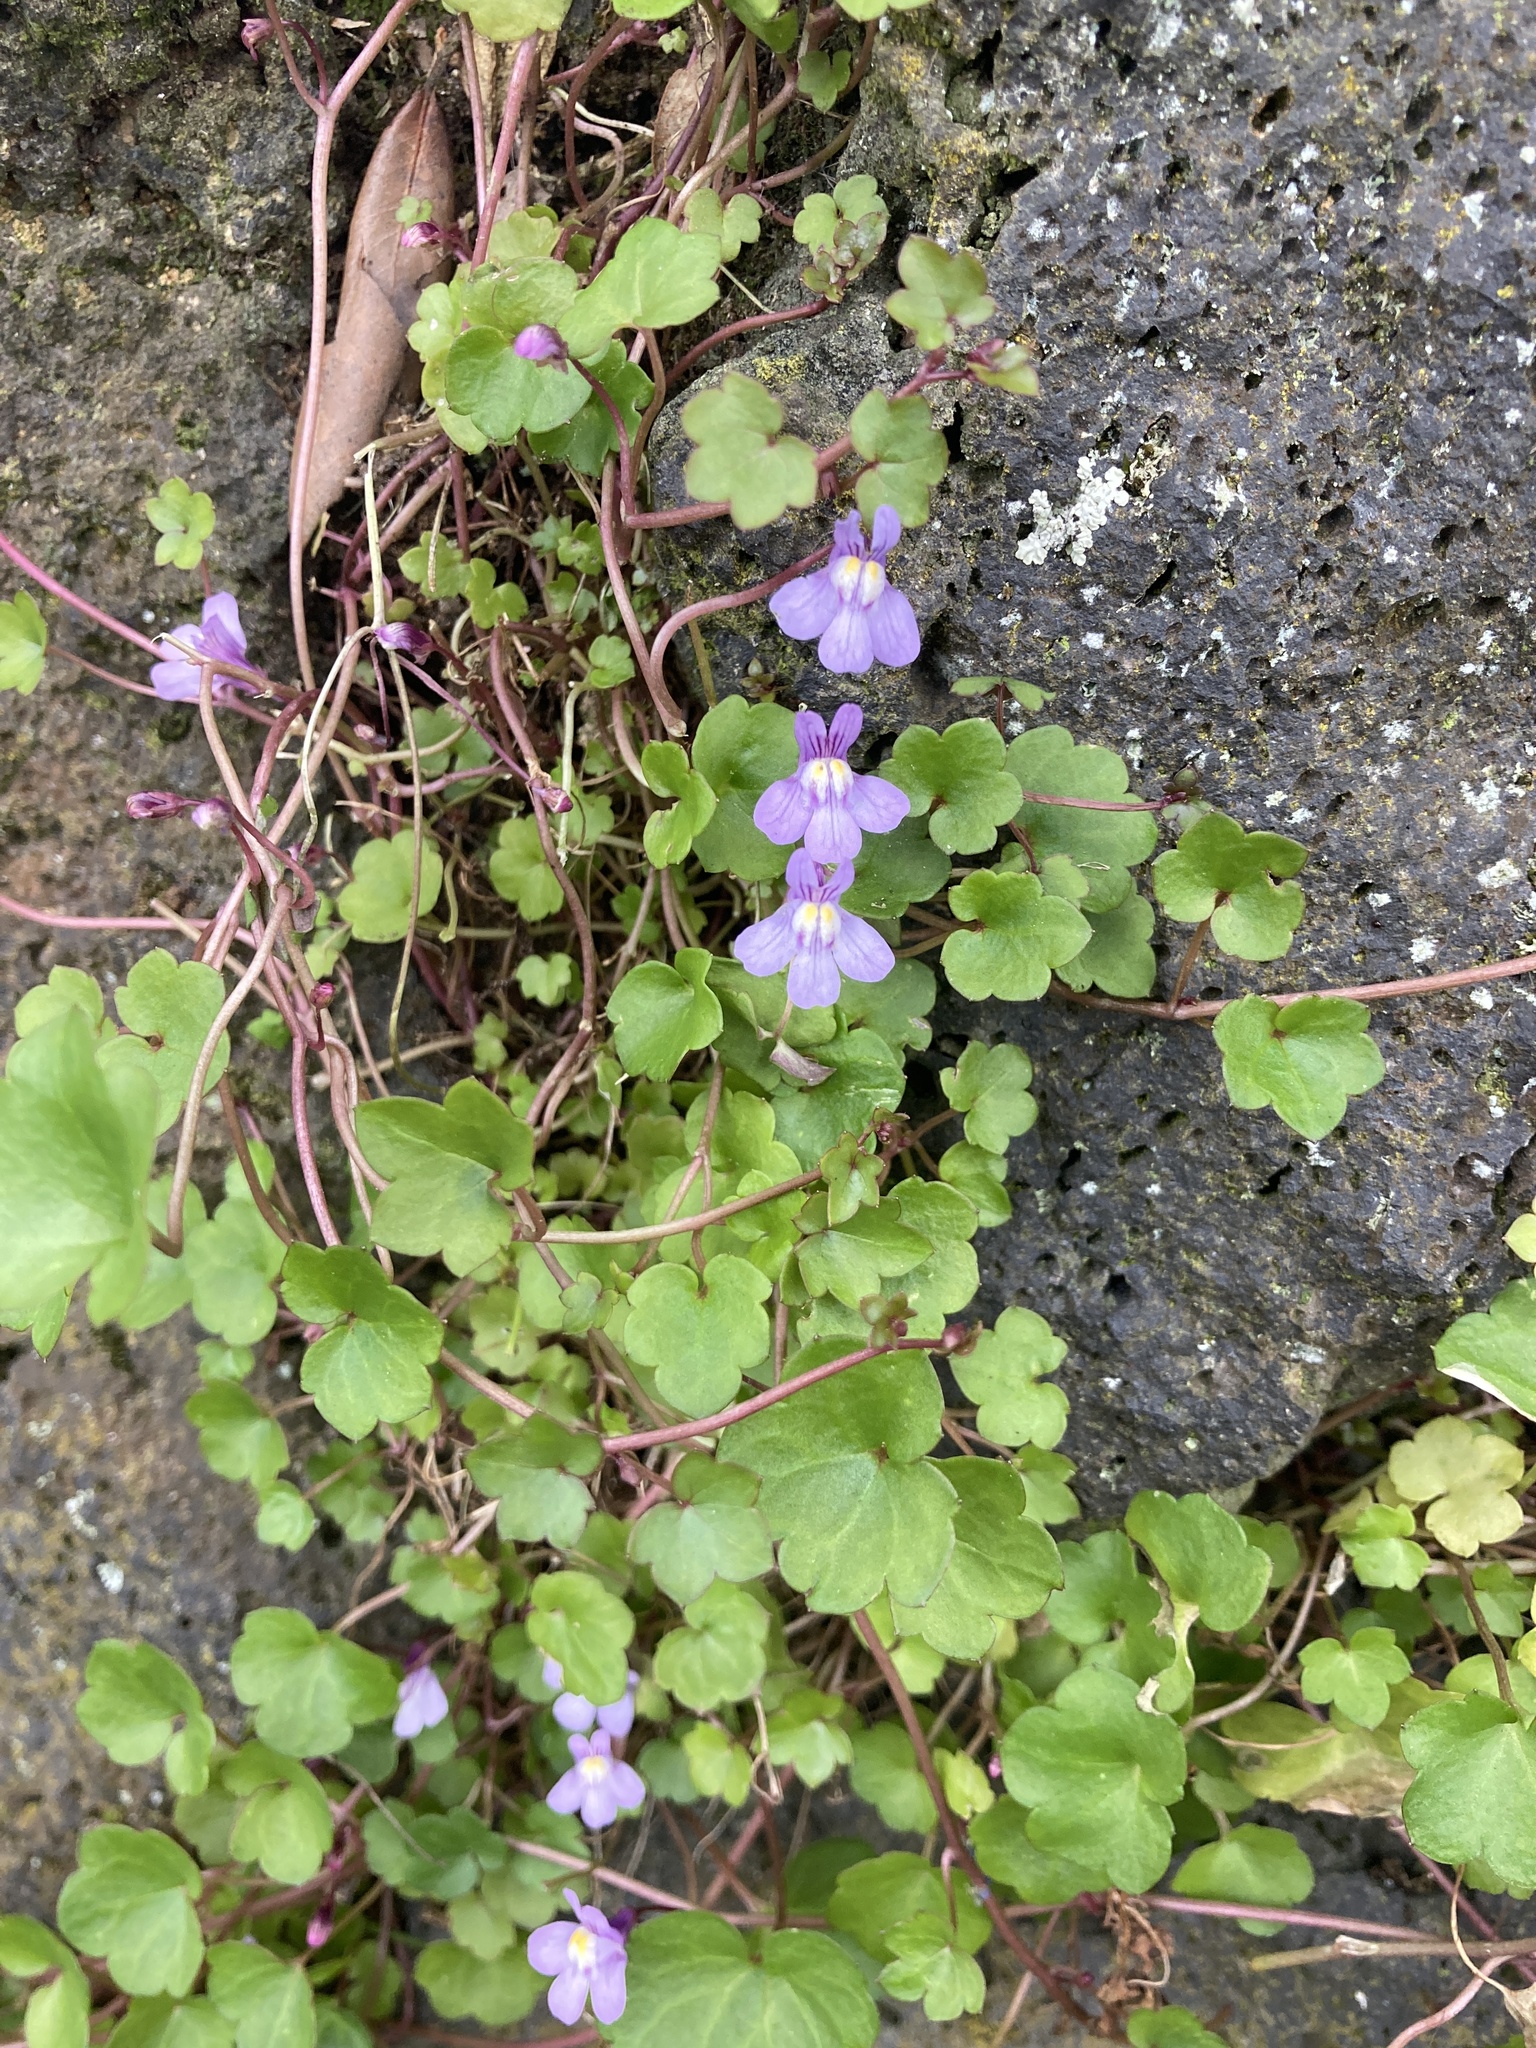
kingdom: Plantae
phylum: Tracheophyta
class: Magnoliopsida
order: Lamiales
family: Plantaginaceae
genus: Cymbalaria
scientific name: Cymbalaria muralis
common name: Ivy-leaved toadflax
